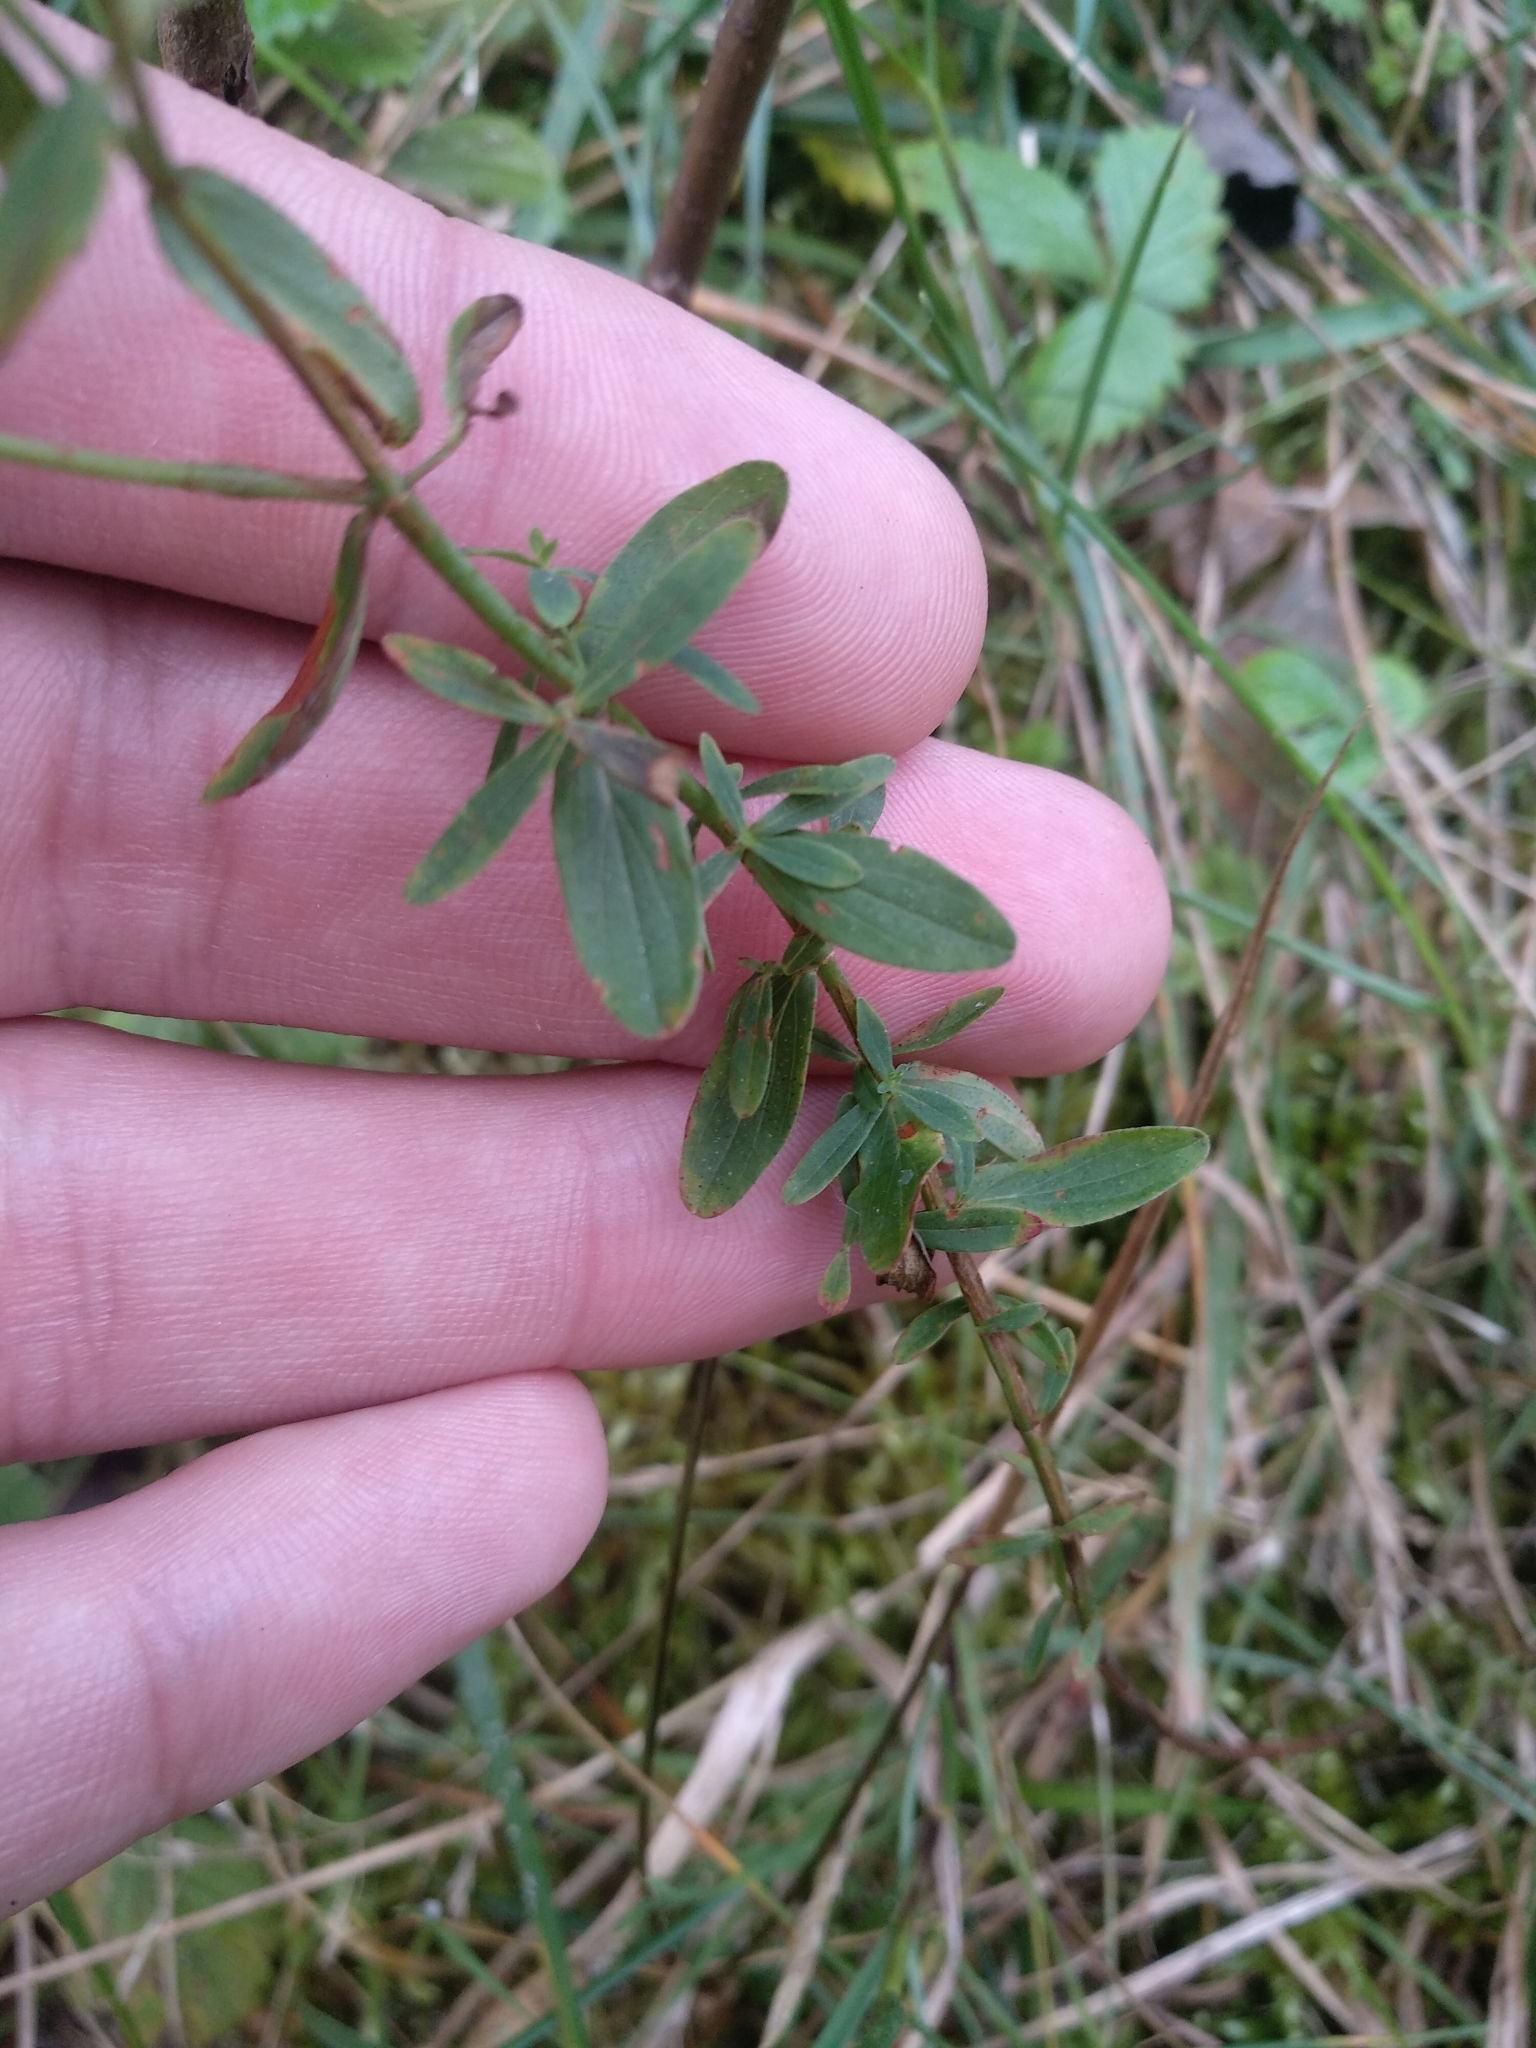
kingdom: Plantae
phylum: Tracheophyta
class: Magnoliopsida
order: Malpighiales
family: Hypericaceae
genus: Hypericum
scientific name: Hypericum perforatum
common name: Common st. johnswort
